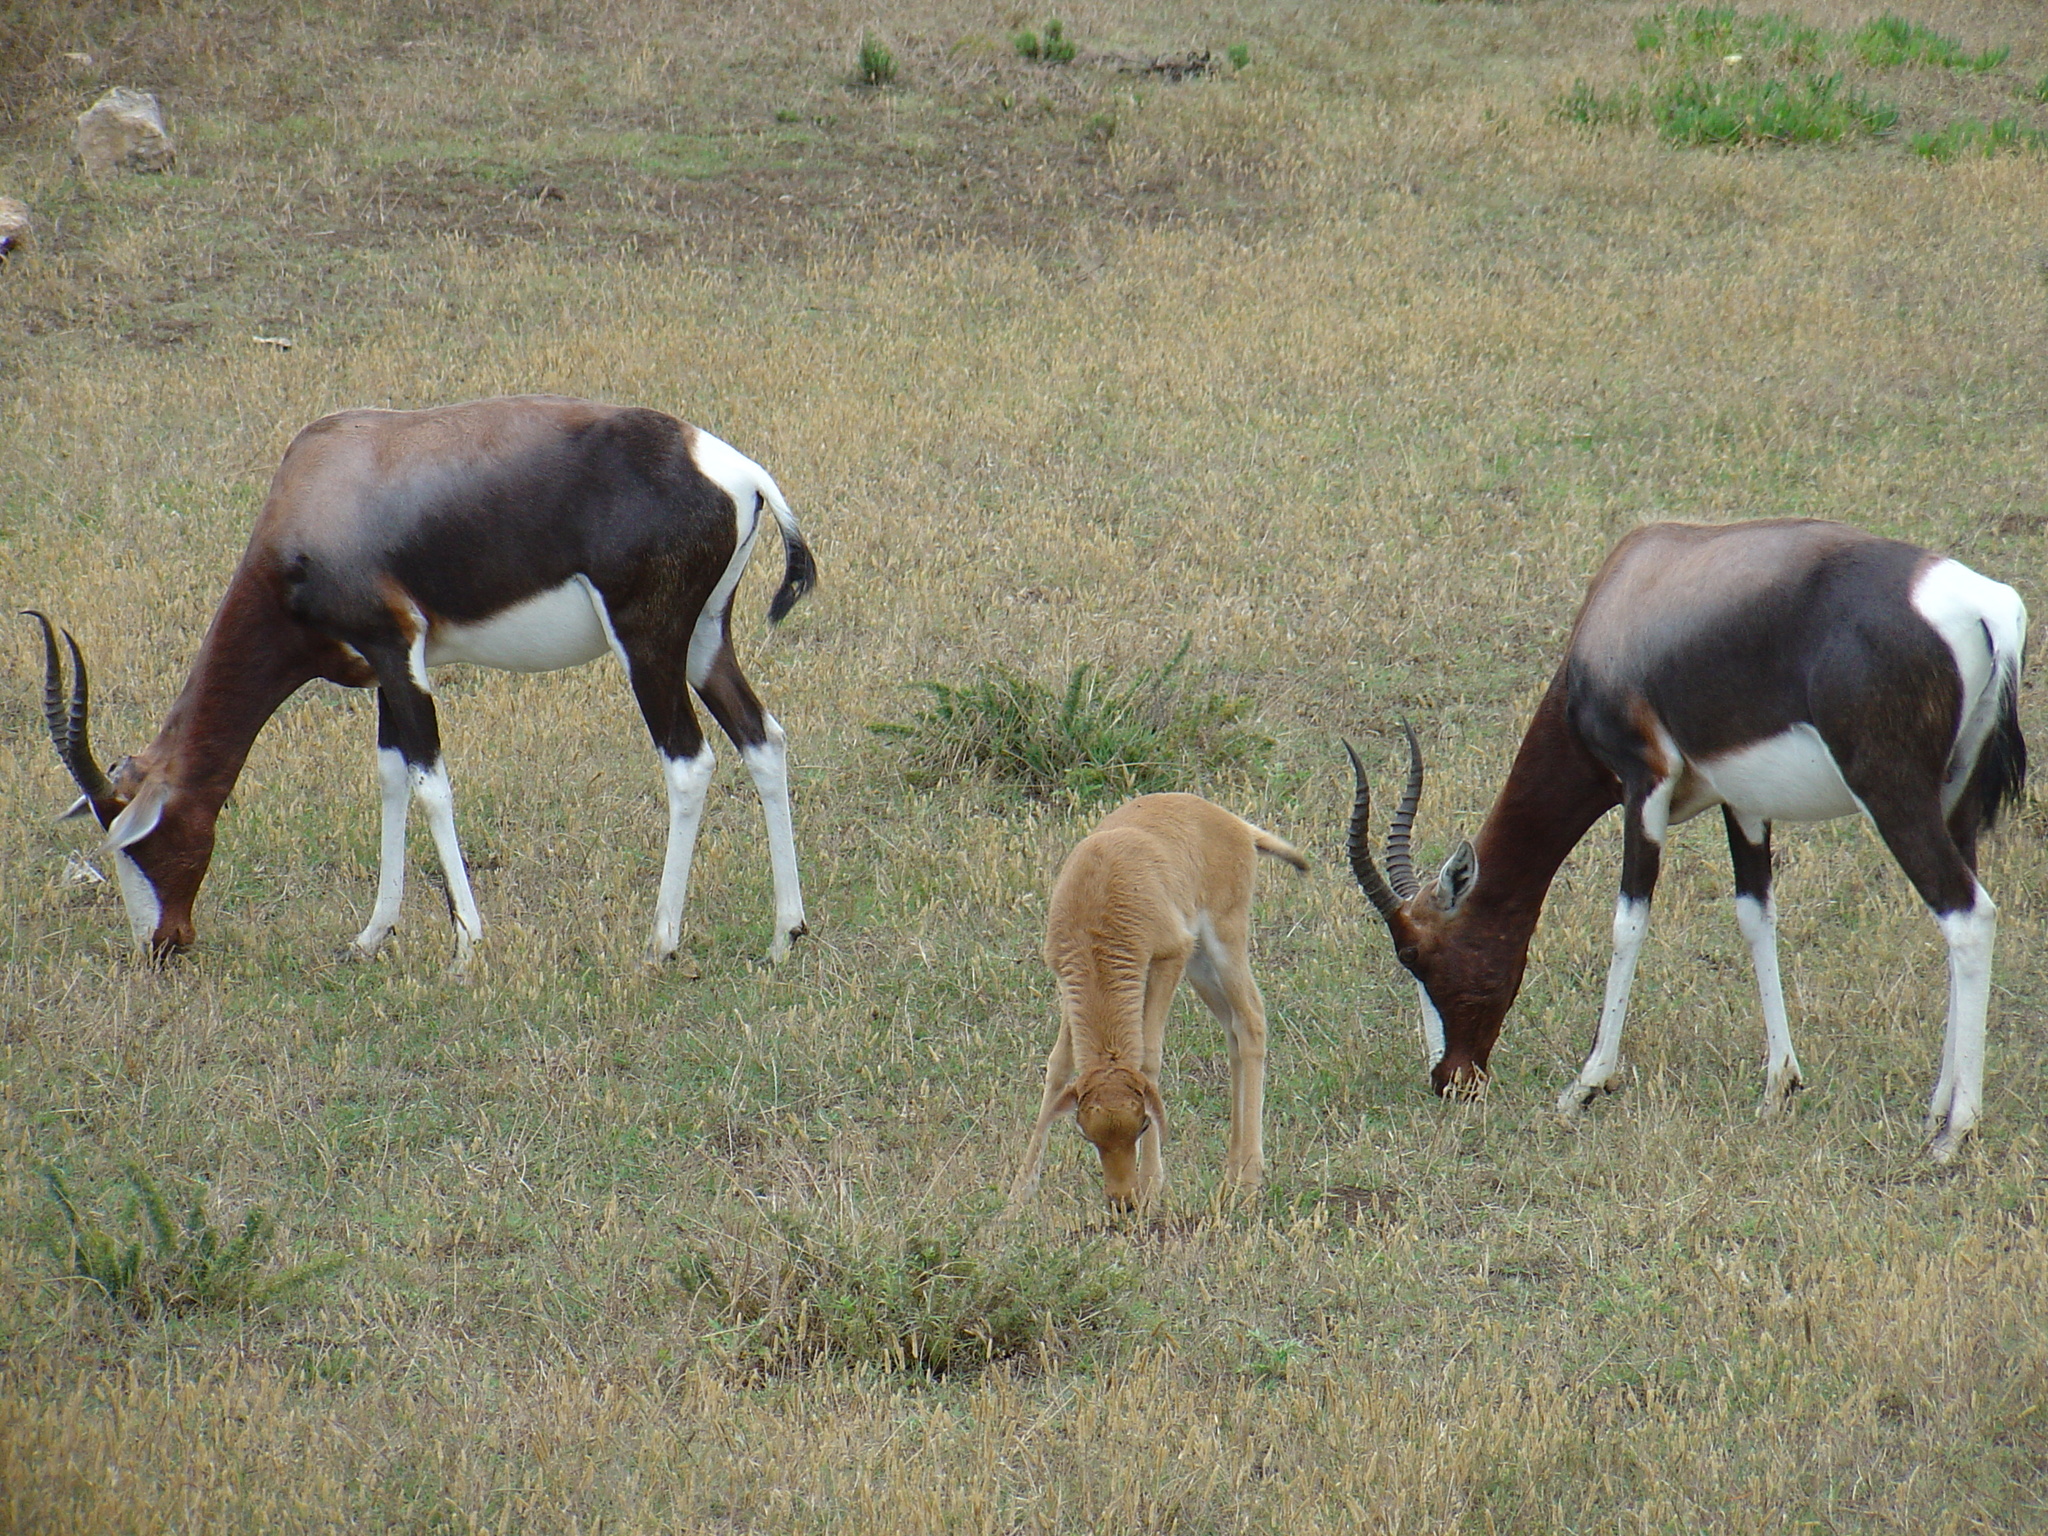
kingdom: Animalia
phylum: Chordata
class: Mammalia
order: Artiodactyla
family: Bovidae
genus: Damaliscus
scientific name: Damaliscus pygargus
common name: Bontebok
